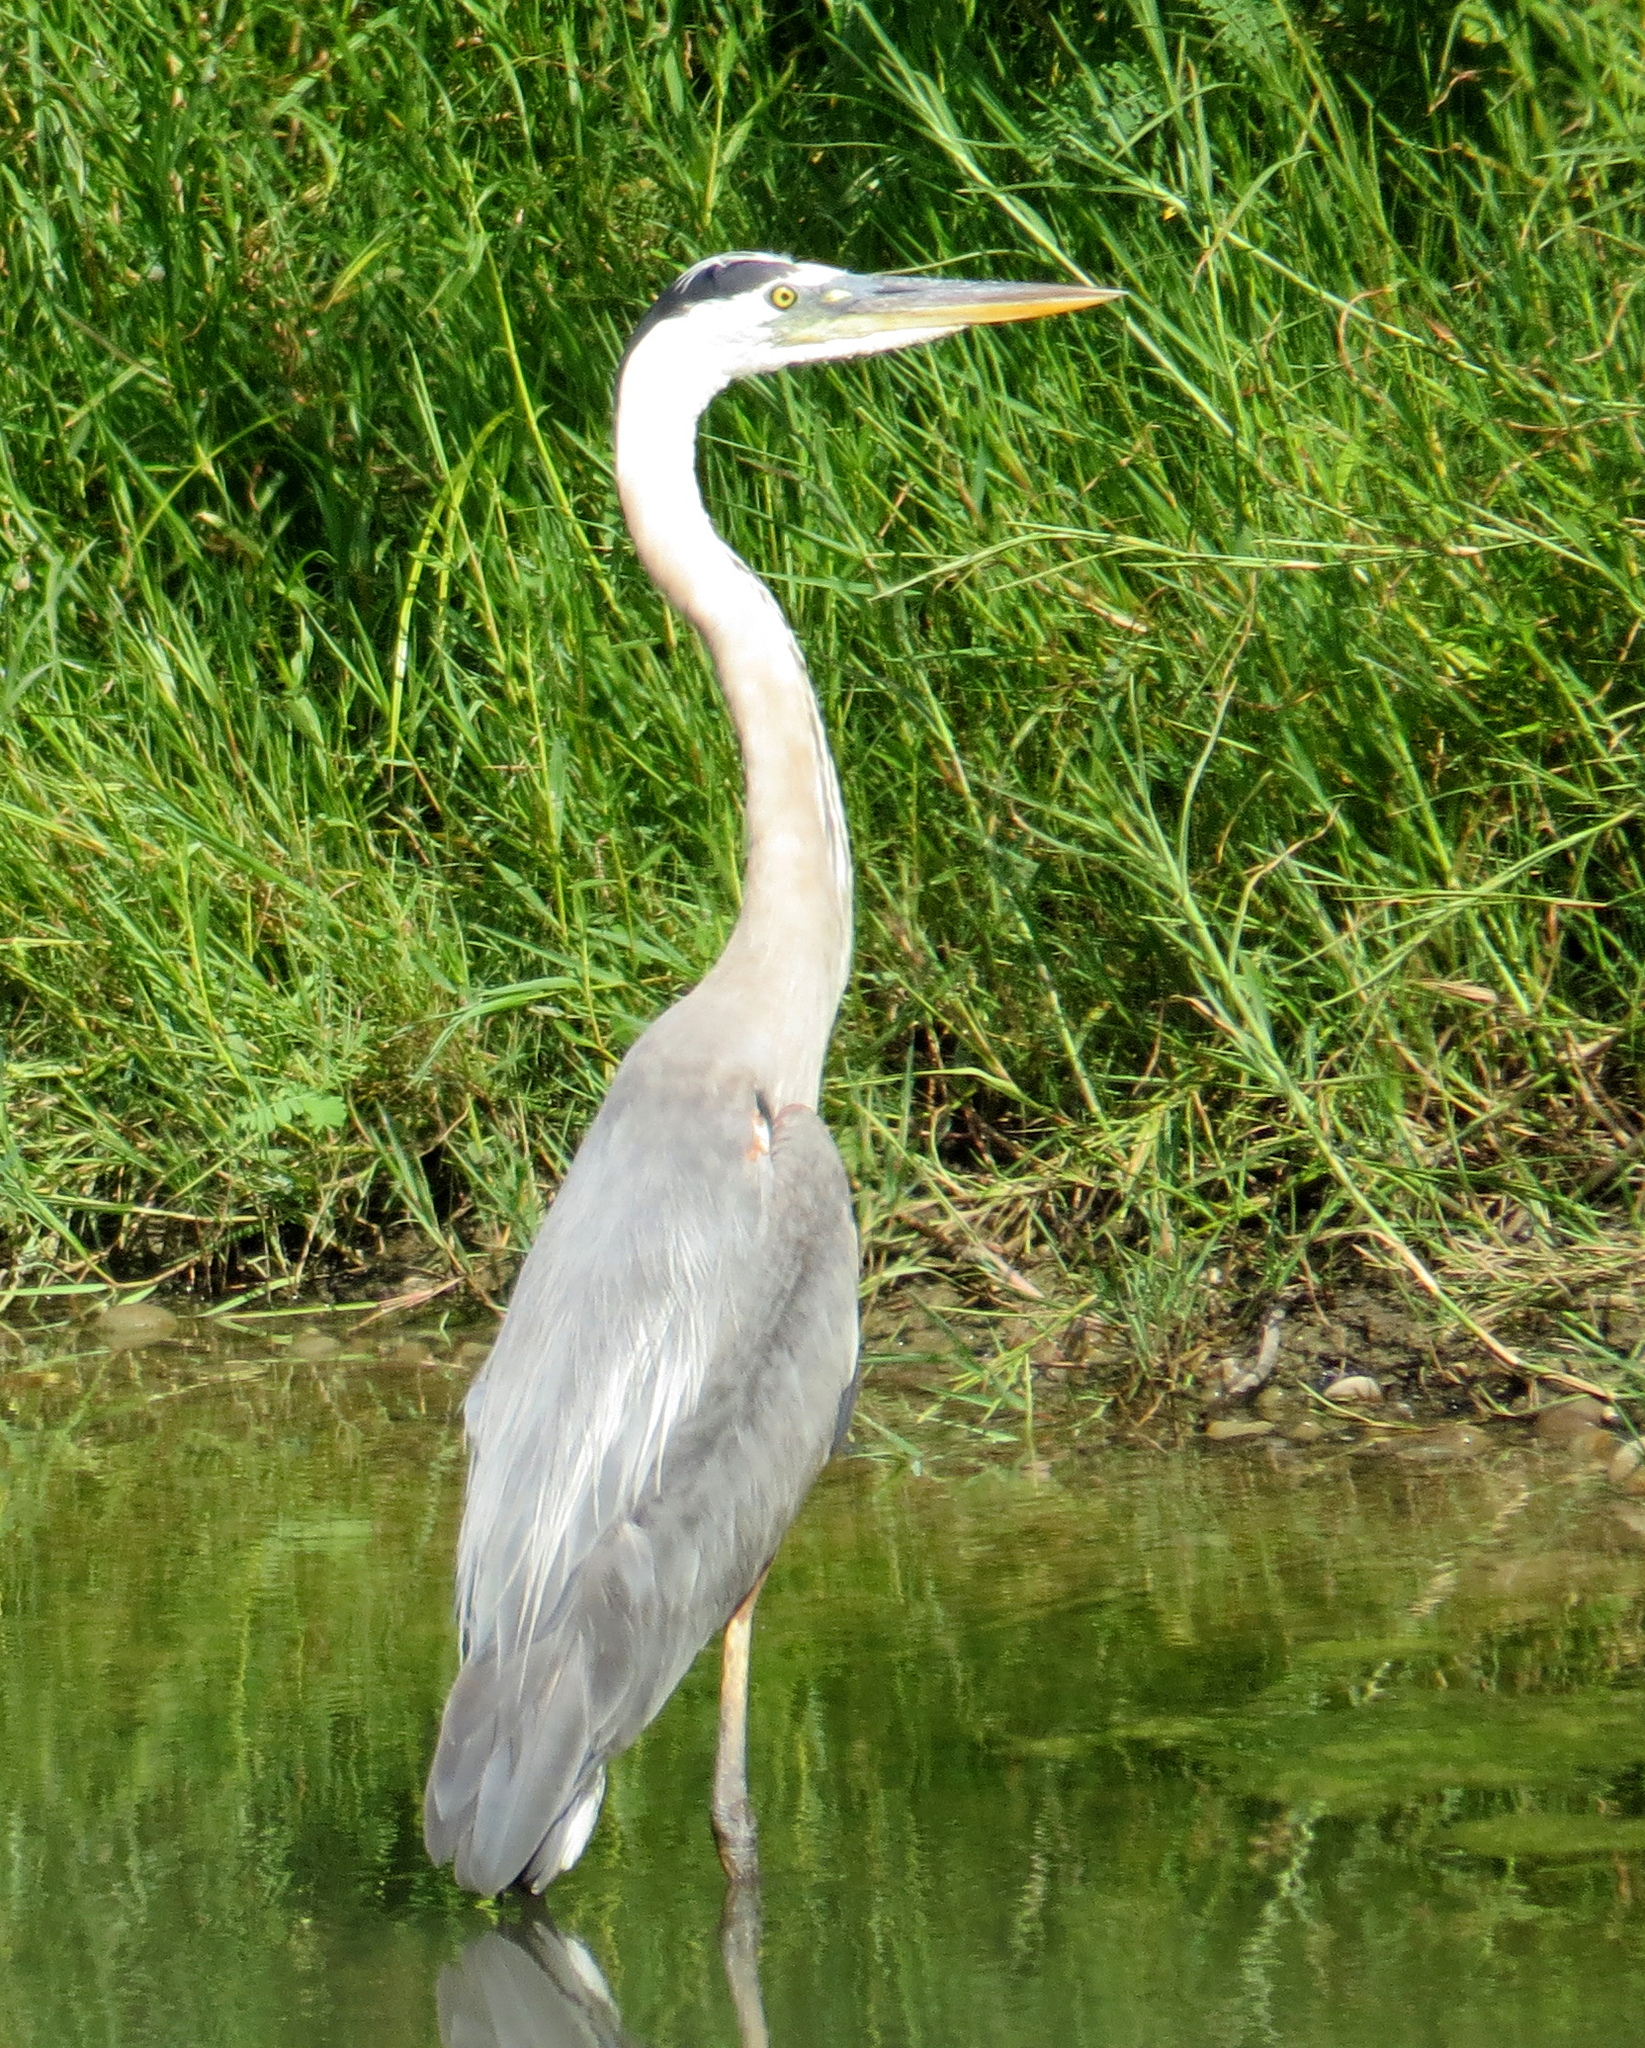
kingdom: Animalia
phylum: Chordata
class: Aves
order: Pelecaniformes
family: Ardeidae
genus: Ardea
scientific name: Ardea herodias
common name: Great blue heron
